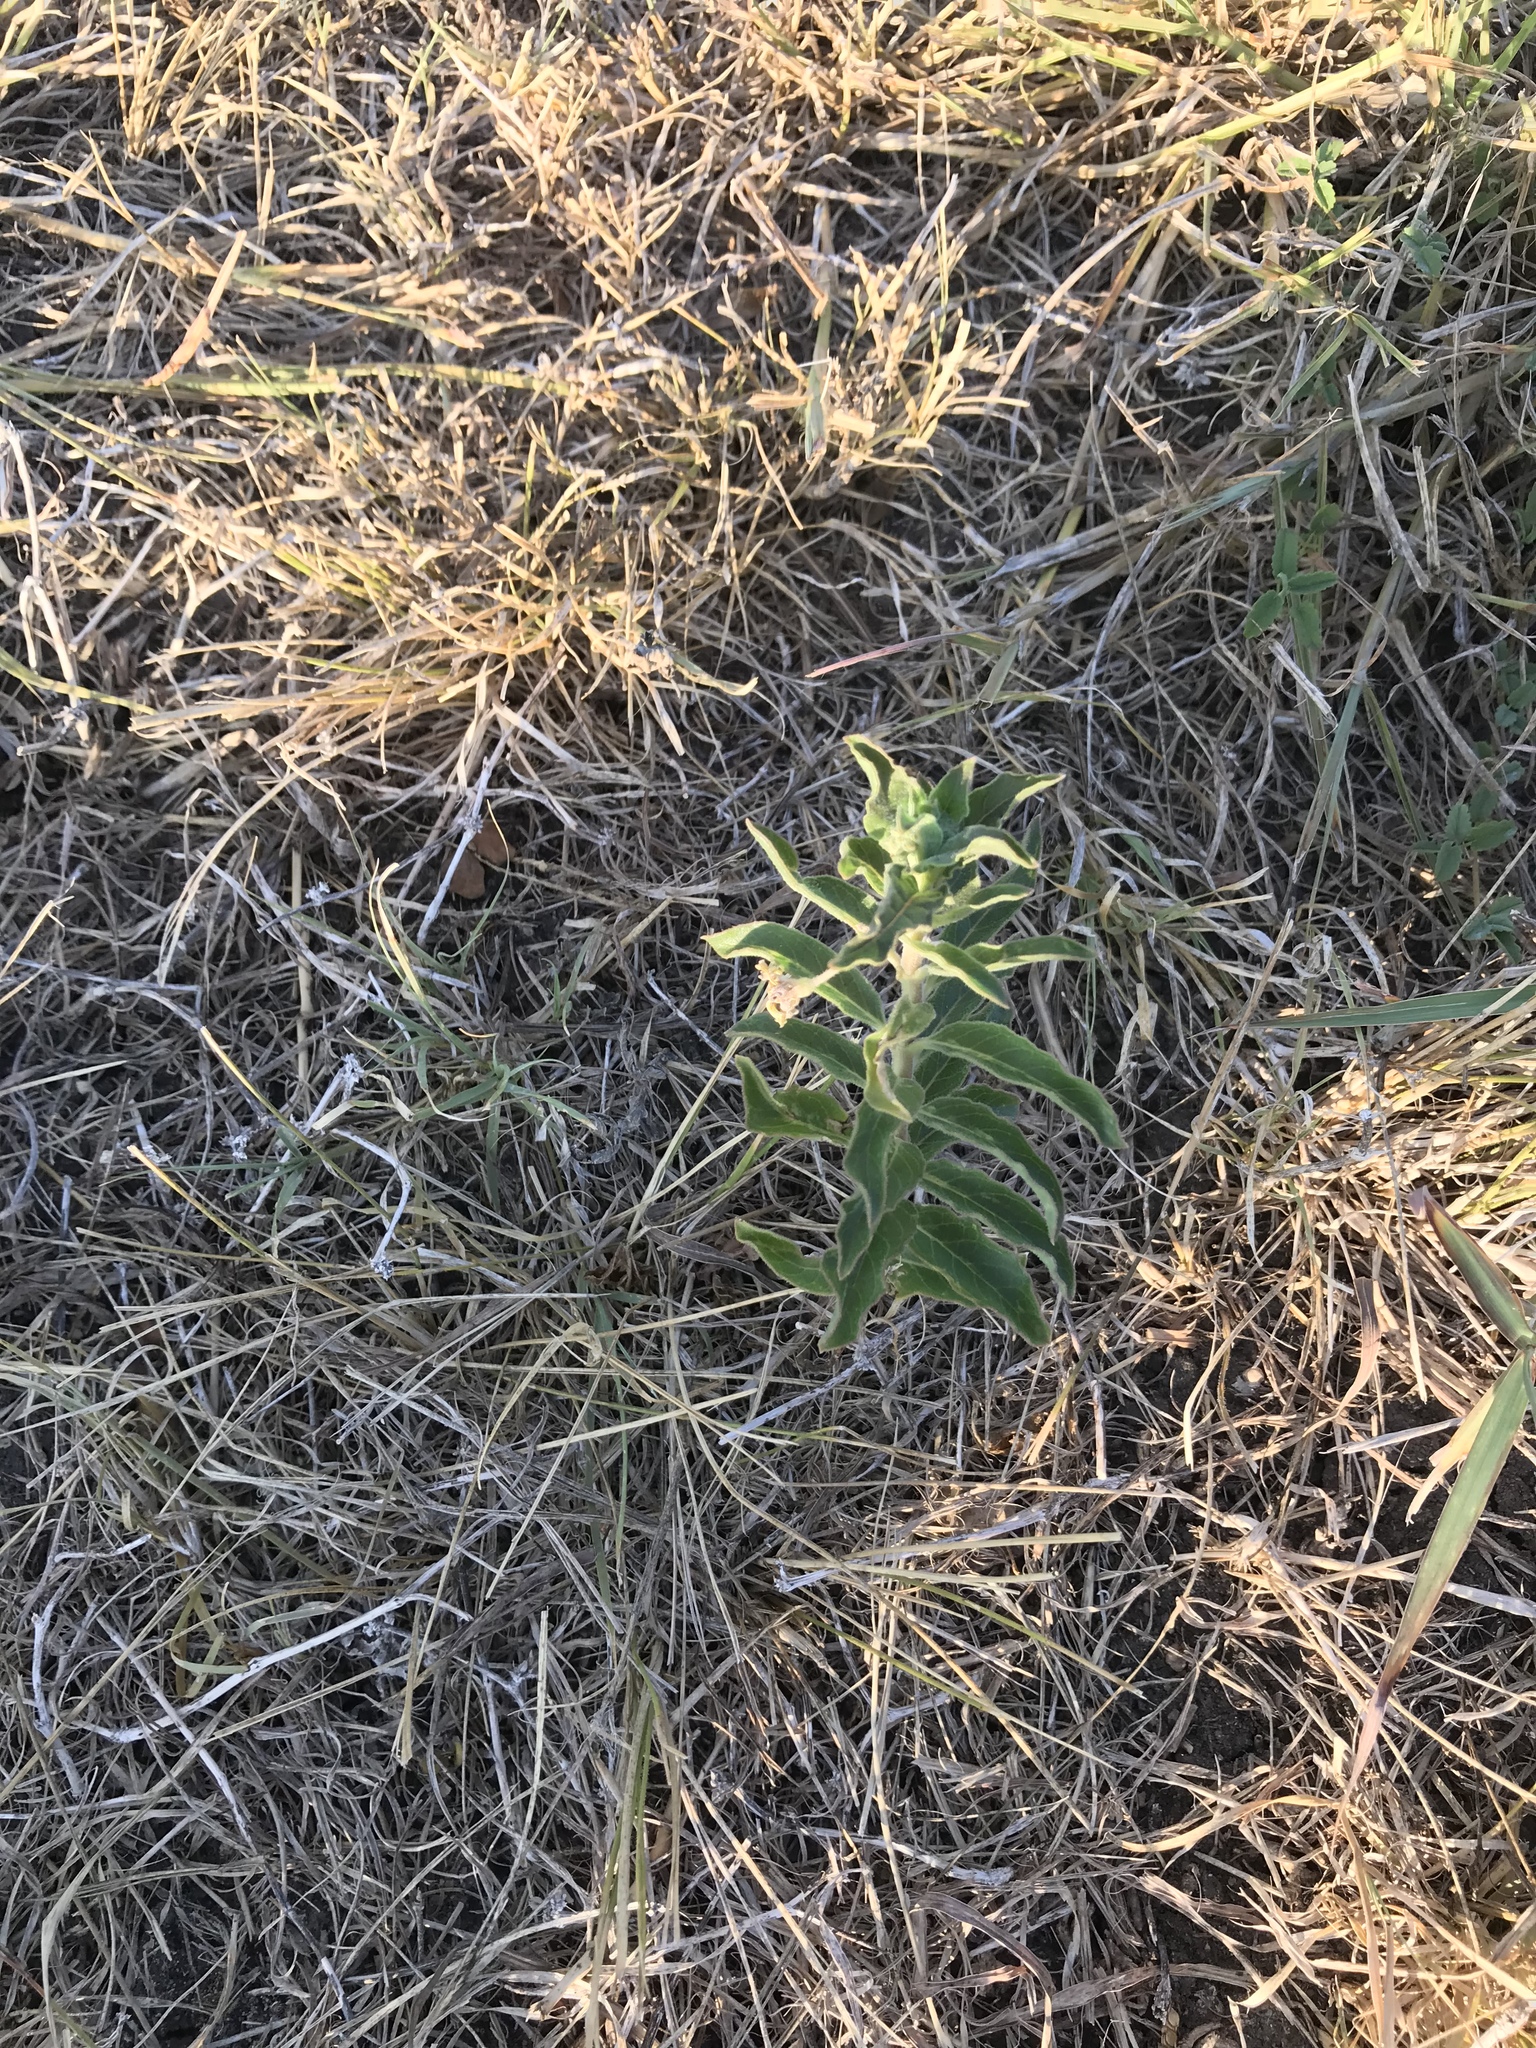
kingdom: Plantae
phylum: Tracheophyta
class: Magnoliopsida
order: Gentianales
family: Apocynaceae
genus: Asclepias
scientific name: Asclepias oenotheroides
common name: Zizotes milkweed
